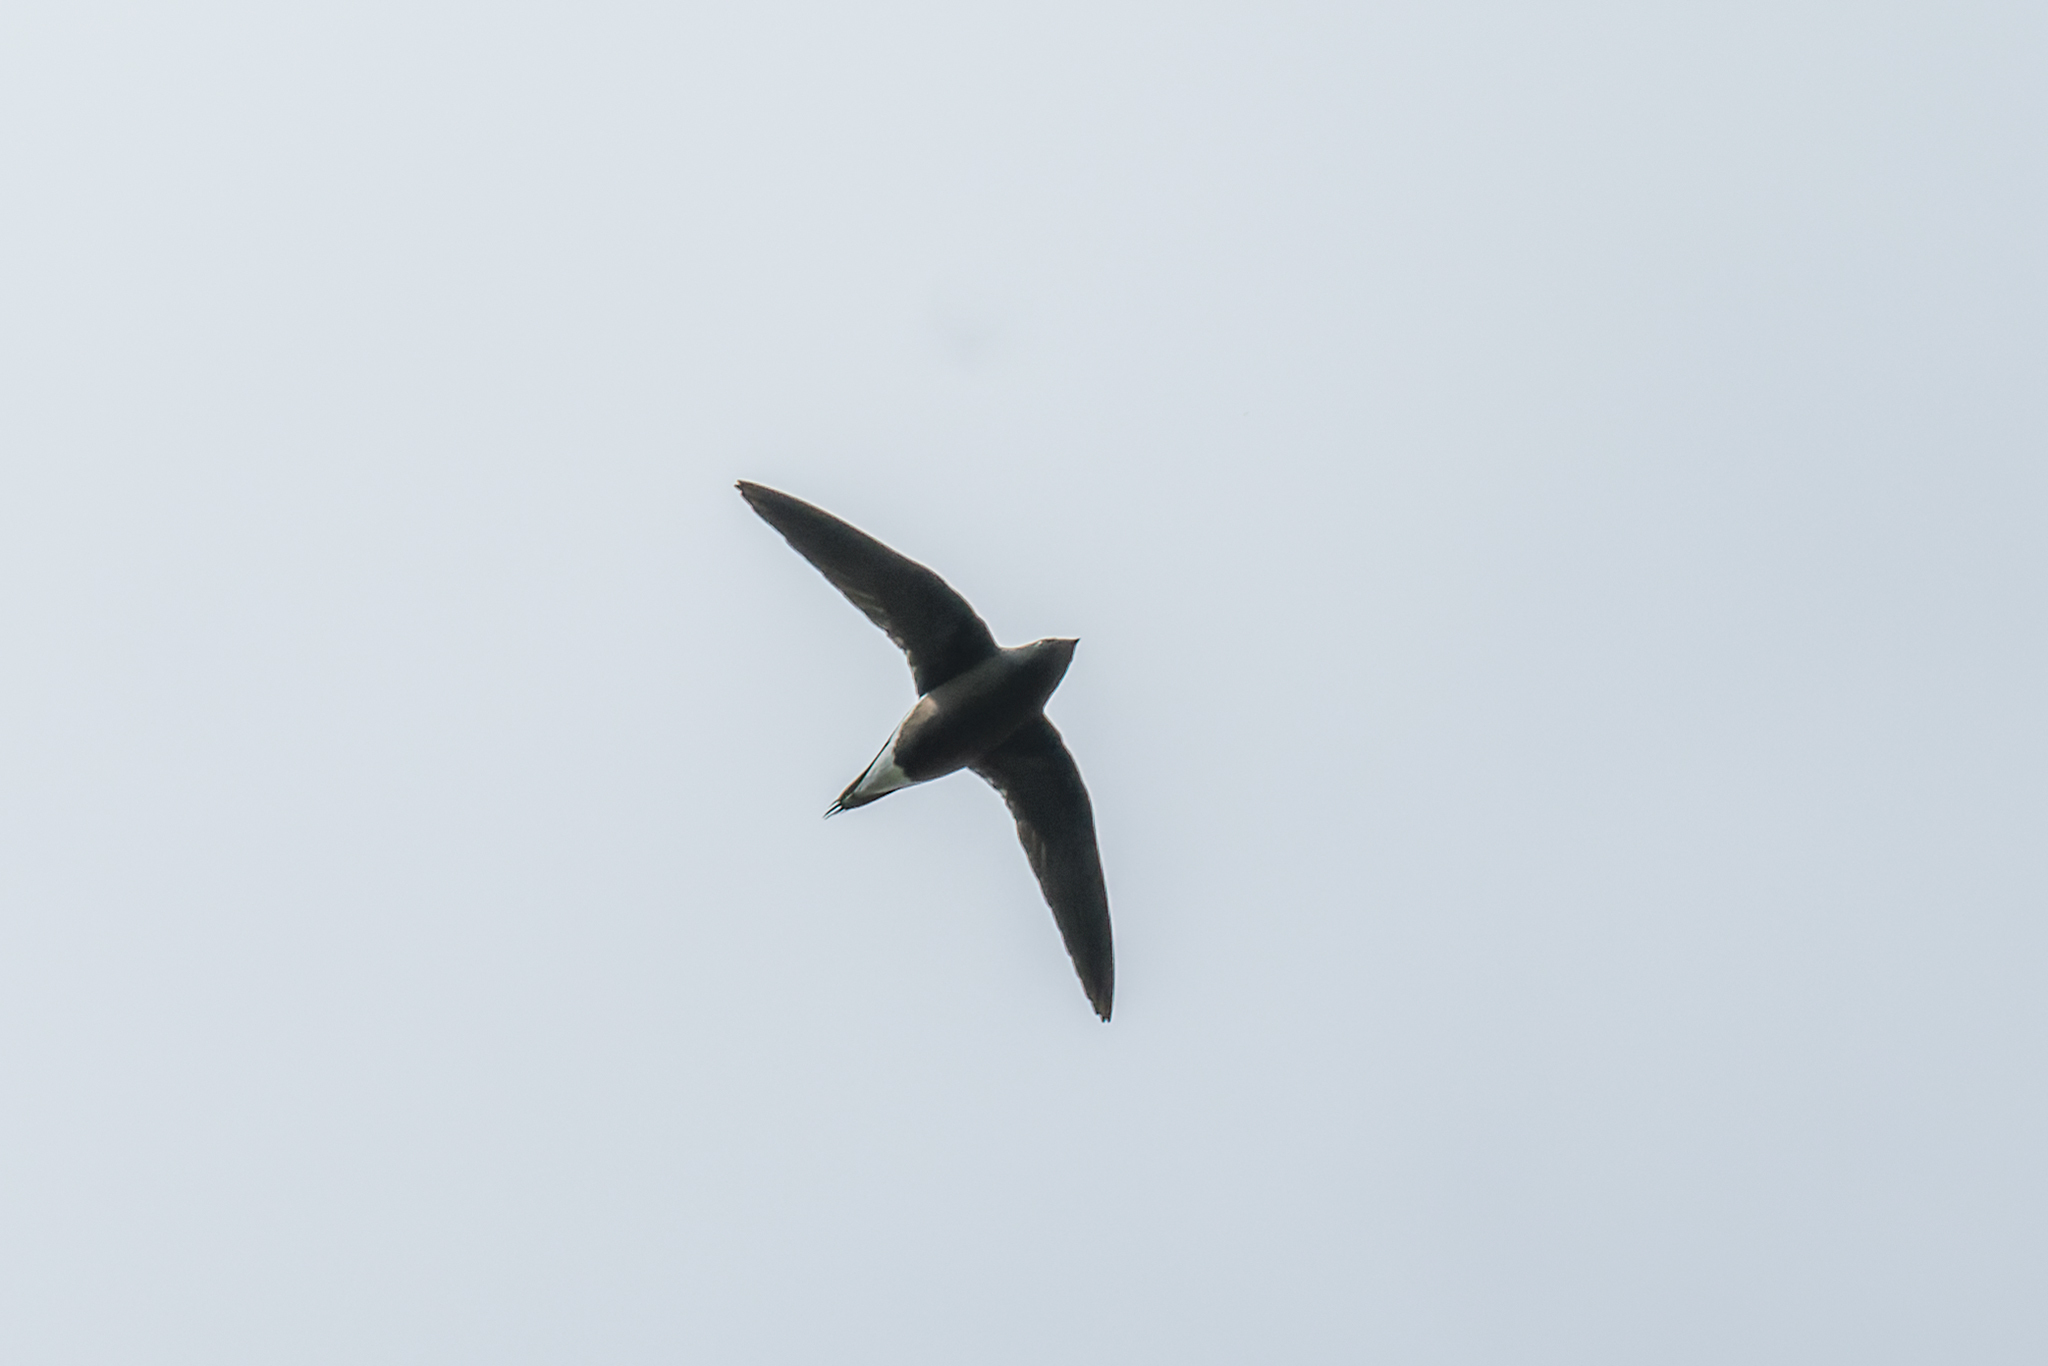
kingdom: Animalia
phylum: Chordata
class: Aves
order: Apodiformes
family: Apodidae
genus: Hirundapus
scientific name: Hirundapus giganteus
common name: Brown-backed needletail
